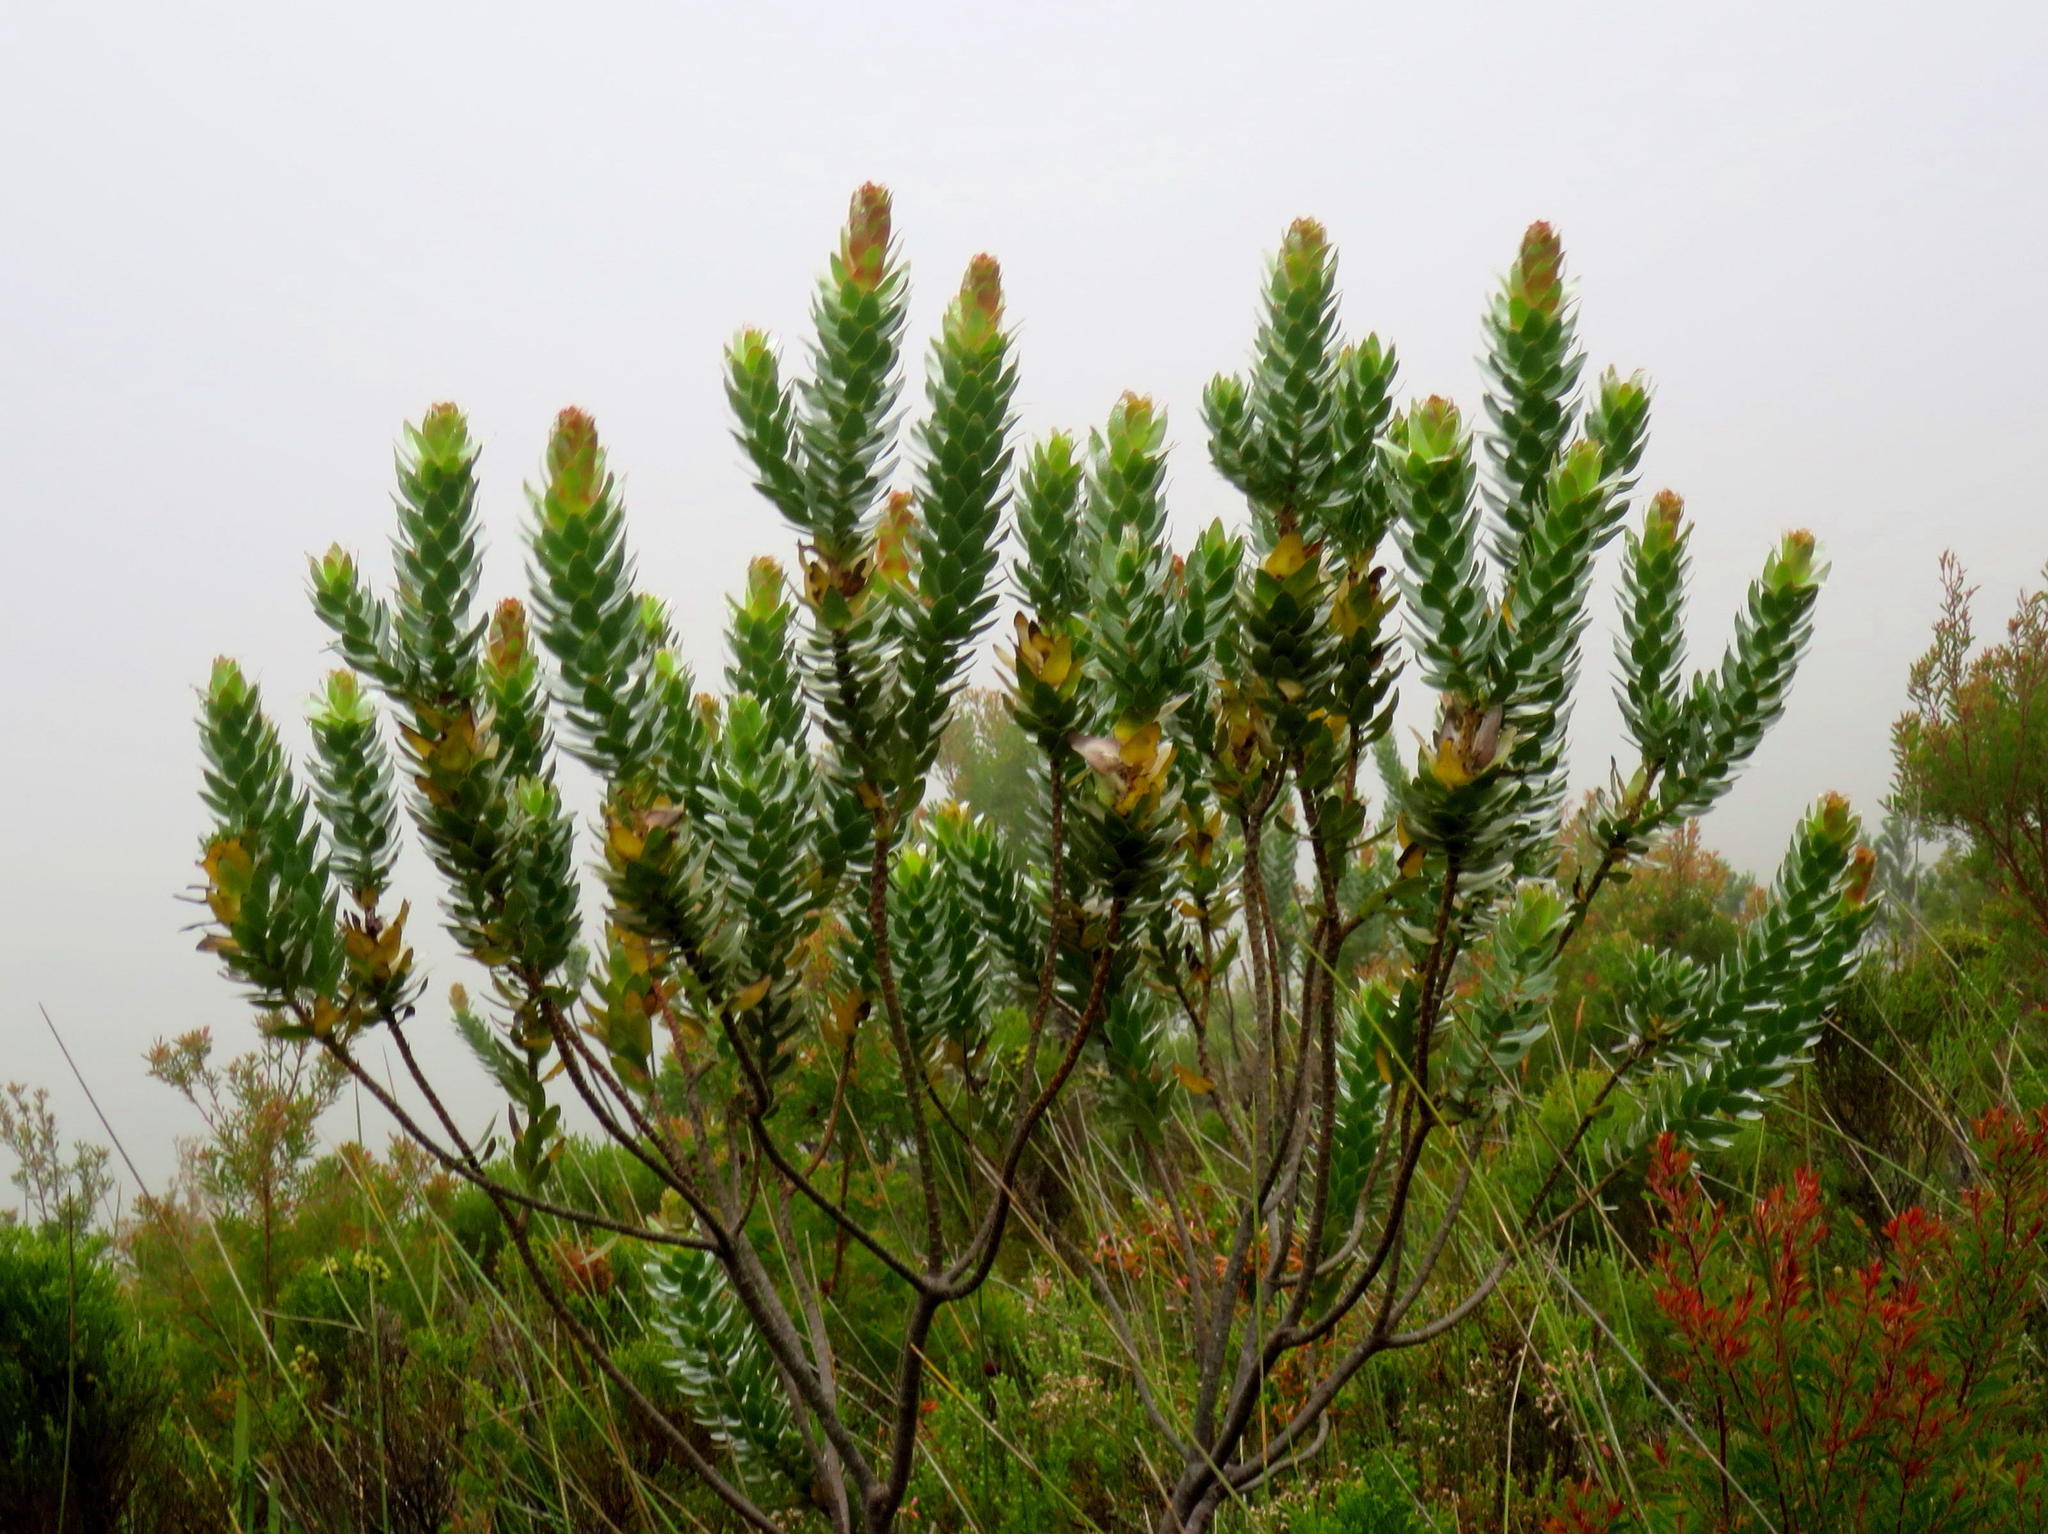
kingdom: Plantae
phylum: Tracheophyta
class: Magnoliopsida
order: Proteales
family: Proteaceae
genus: Mimetes
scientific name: Mimetes splendidus
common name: Splendid pagoda
